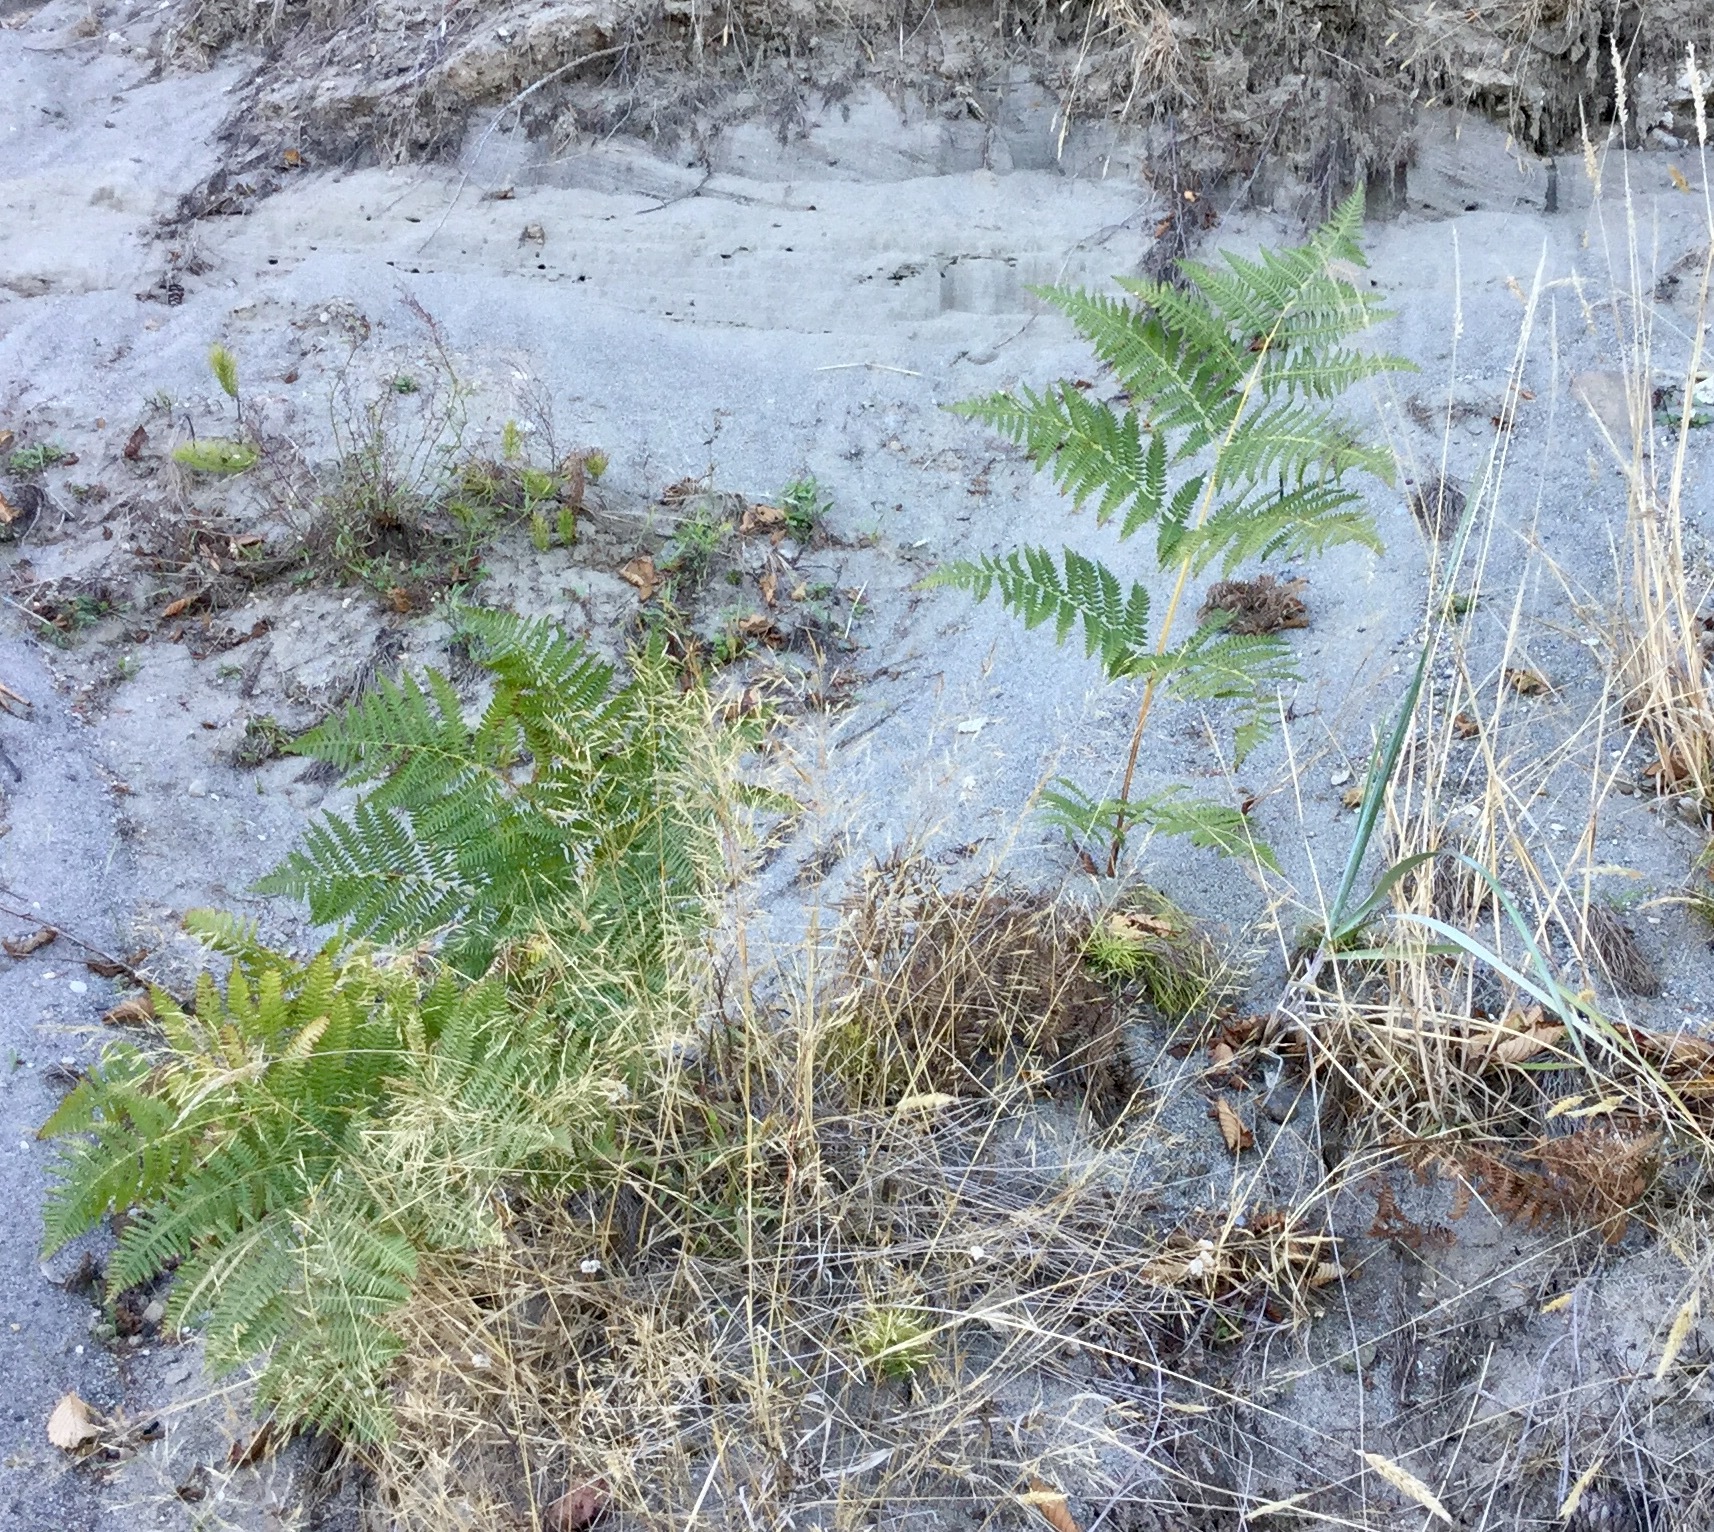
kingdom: Plantae
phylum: Tracheophyta
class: Polypodiopsida
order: Polypodiales
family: Dennstaedtiaceae
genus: Pteridium
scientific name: Pteridium aquilinum
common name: Bracken
